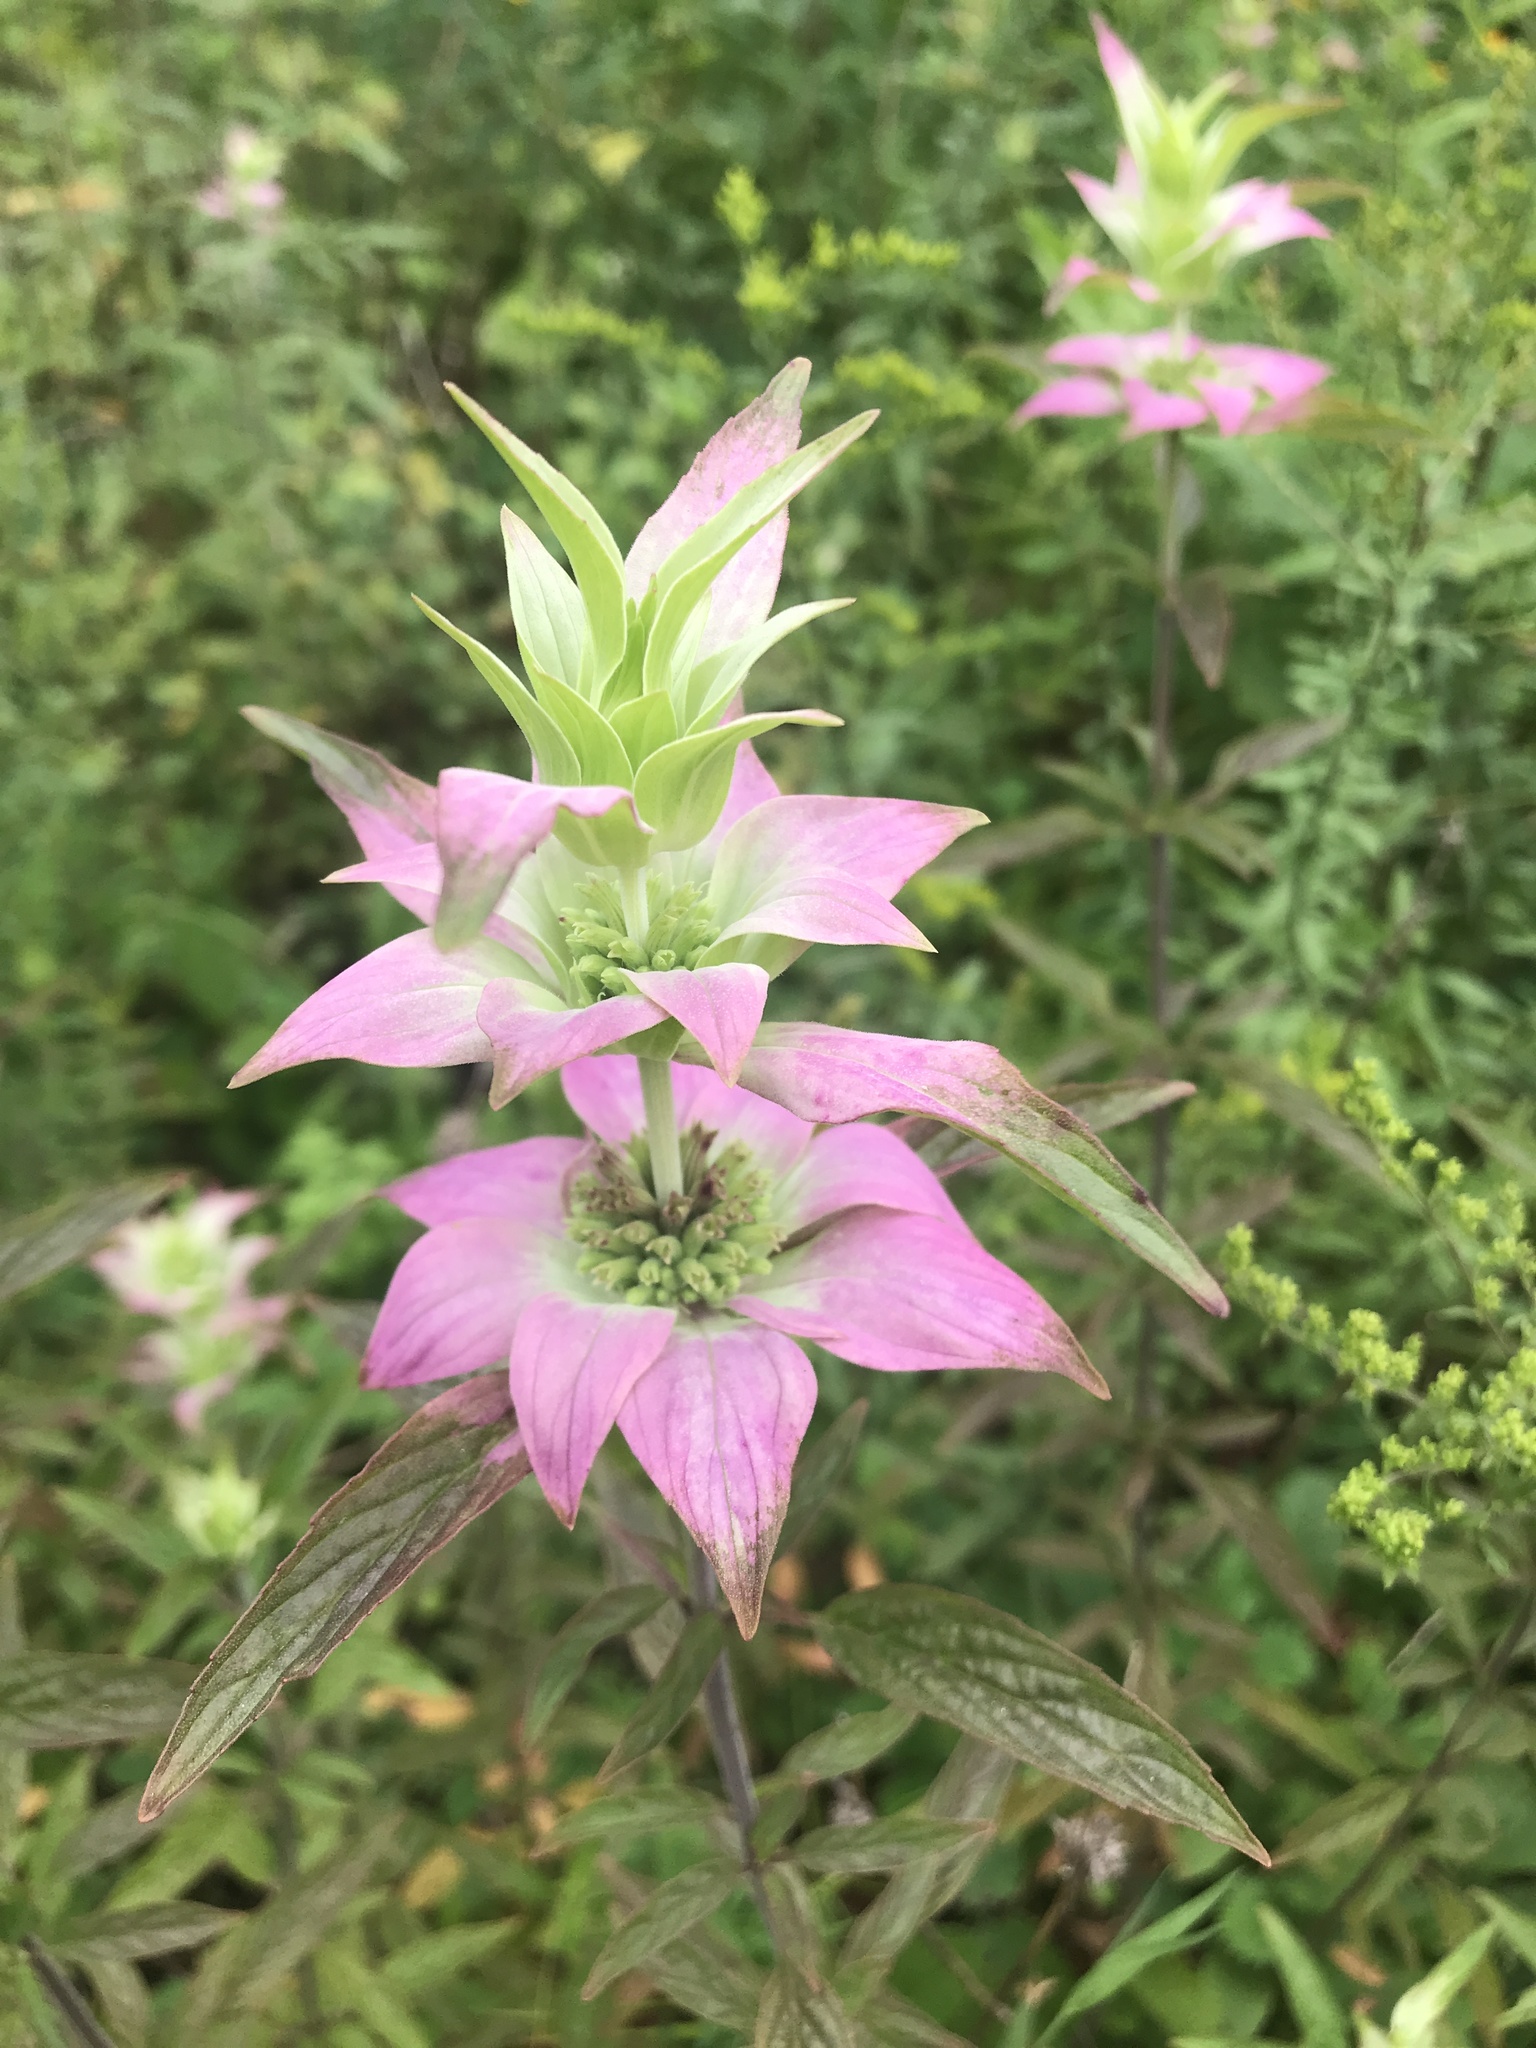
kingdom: Plantae
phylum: Tracheophyta
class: Magnoliopsida
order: Lamiales
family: Lamiaceae
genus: Monarda
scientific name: Monarda punctata
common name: Dotted monarda
